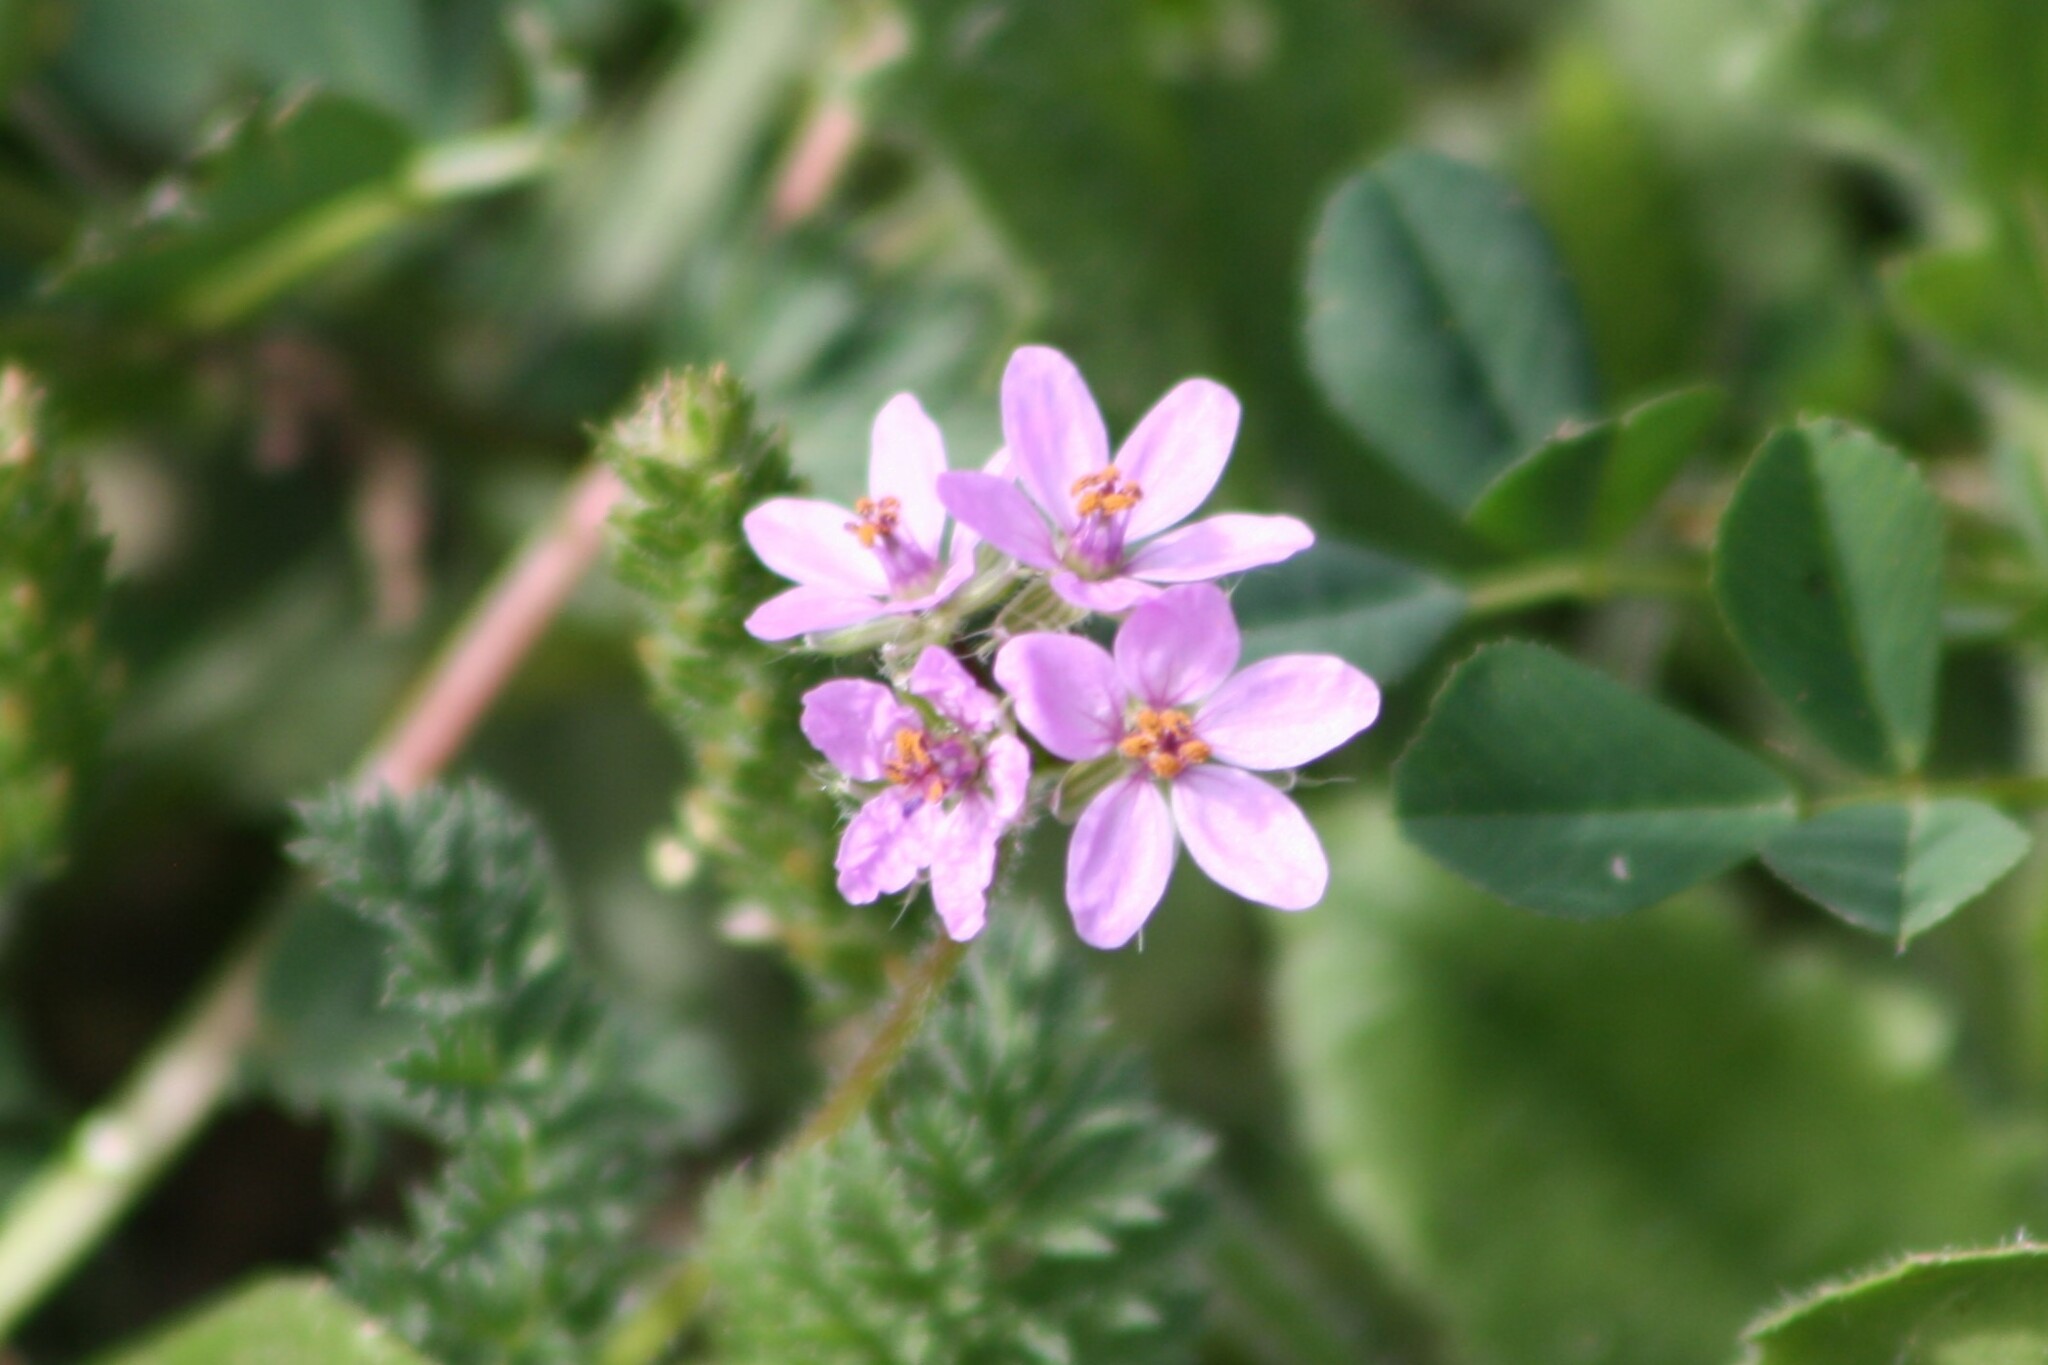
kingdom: Plantae
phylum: Tracheophyta
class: Magnoliopsida
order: Geraniales
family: Geraniaceae
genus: Erodium
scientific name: Erodium cicutarium
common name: Common stork's-bill
